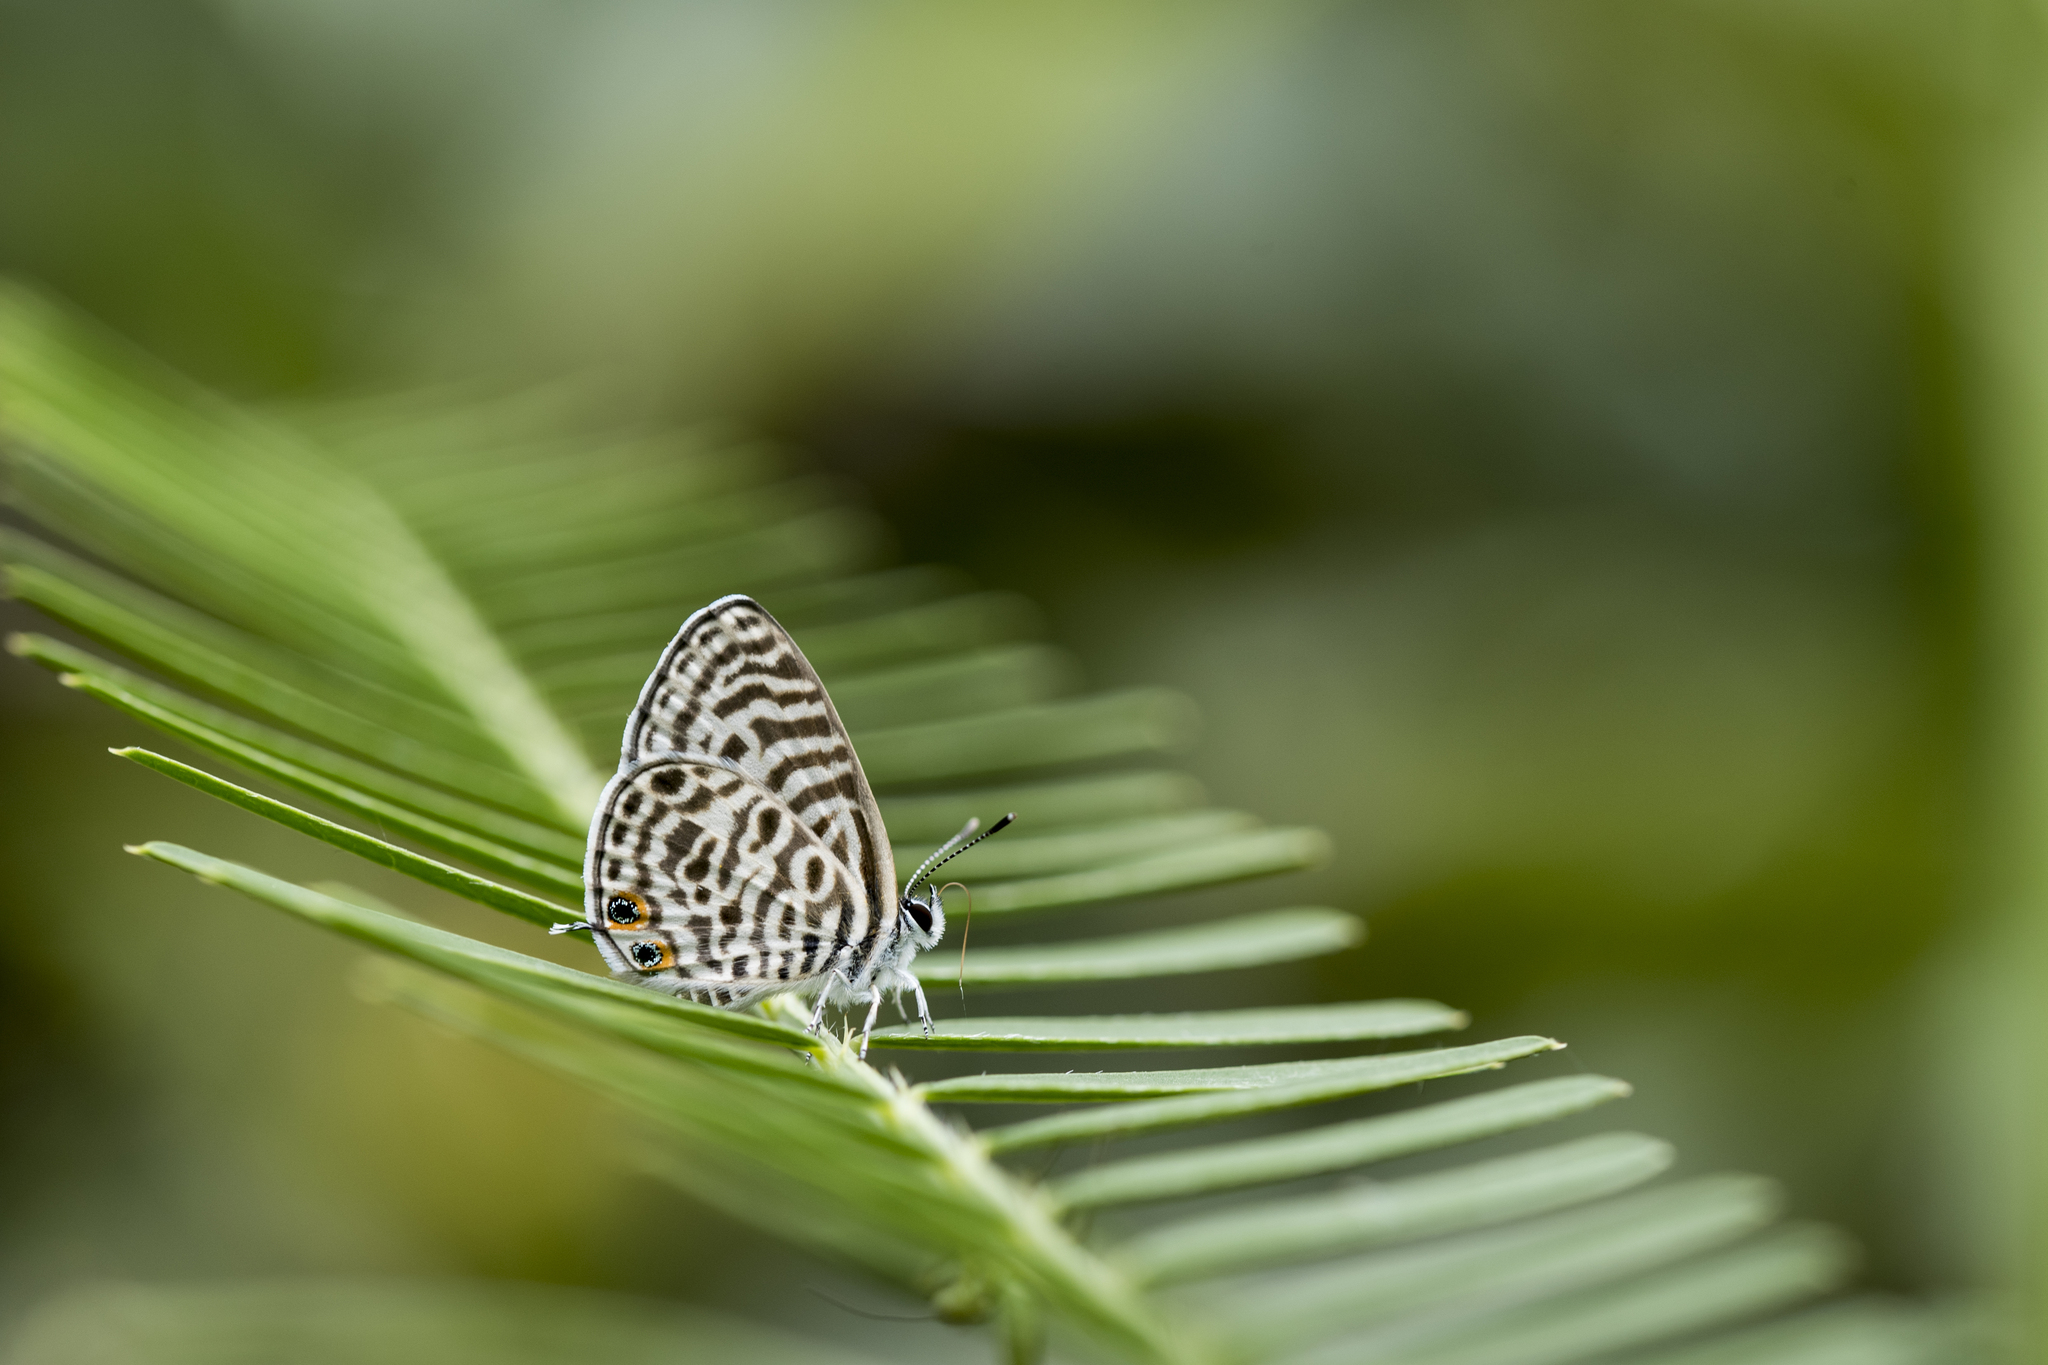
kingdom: Animalia
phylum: Arthropoda
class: Insecta
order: Lepidoptera
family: Lycaenidae
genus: Leptotes
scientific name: Leptotes plinius
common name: Zebra blue
